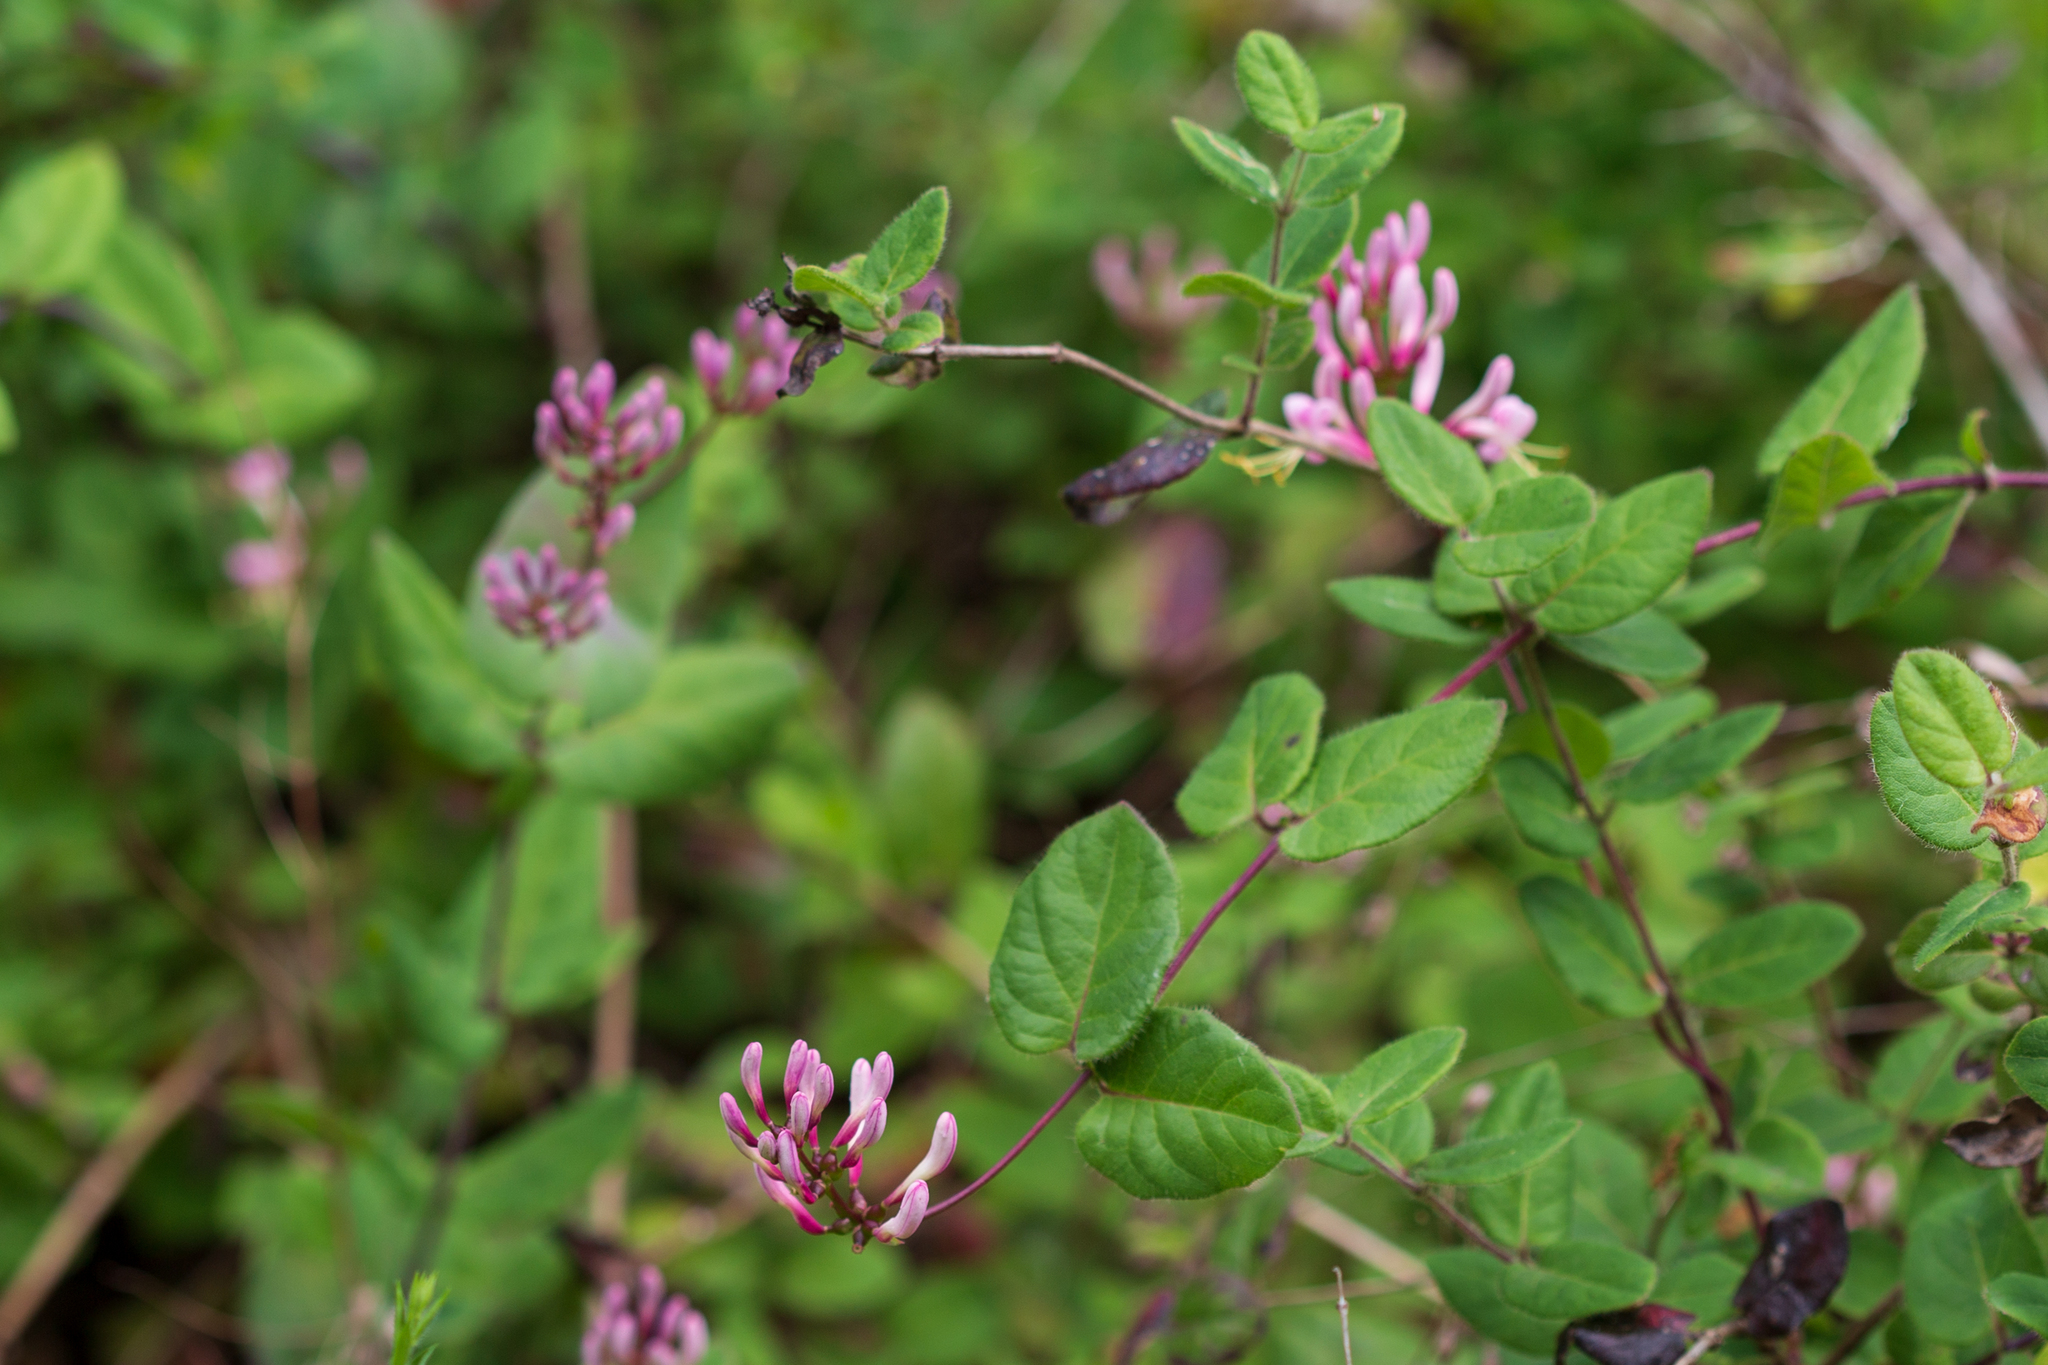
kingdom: Plantae
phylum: Tracheophyta
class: Magnoliopsida
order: Dipsacales
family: Caprifoliaceae
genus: Lonicera
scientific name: Lonicera hispidula
